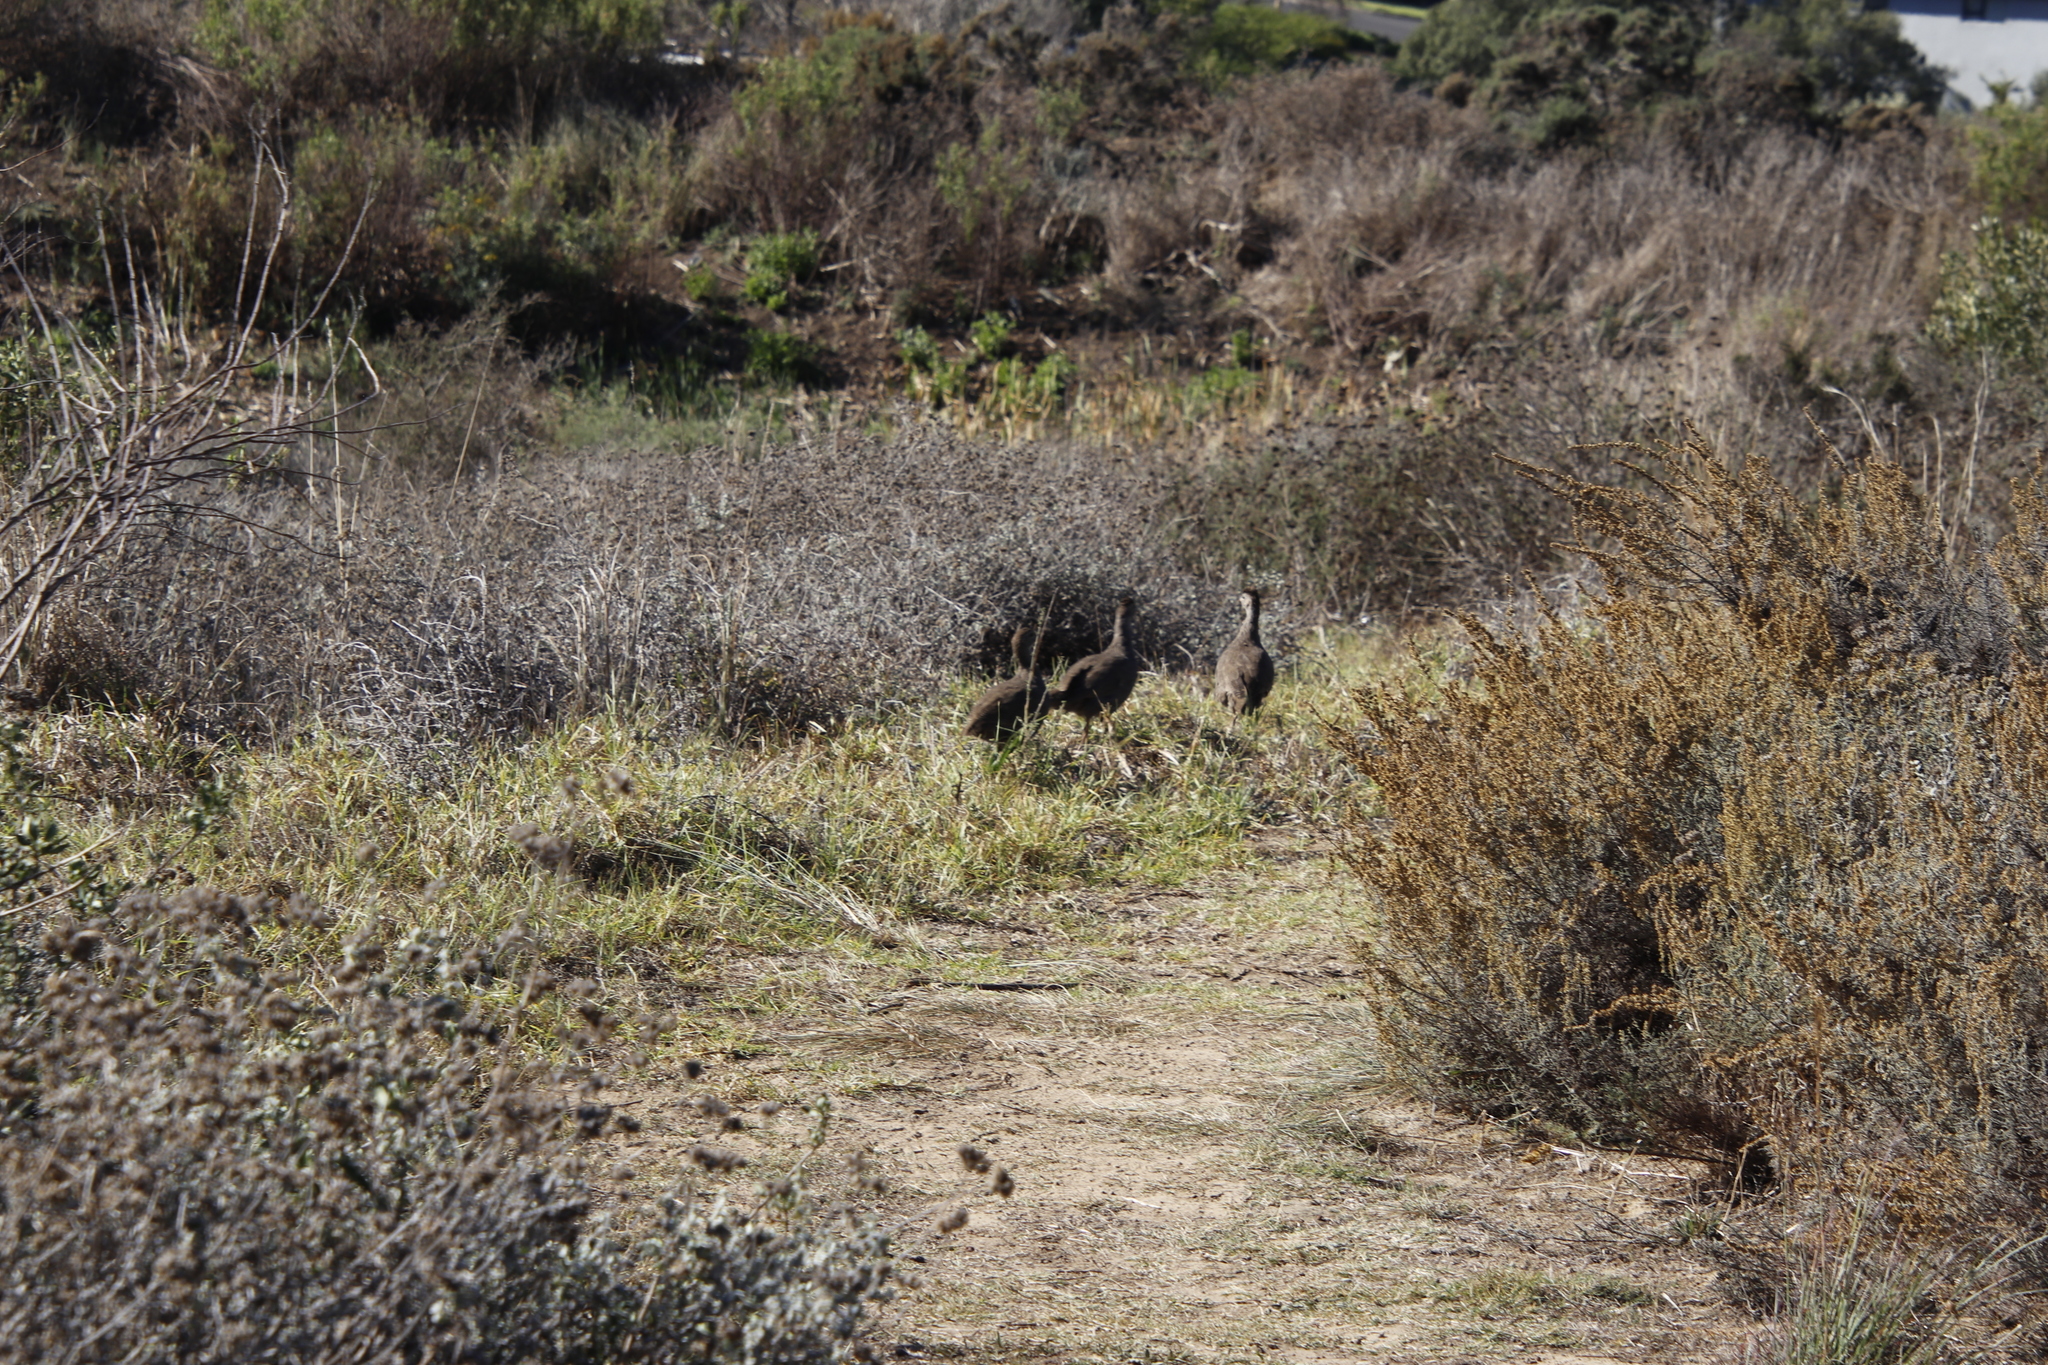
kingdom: Animalia
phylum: Chordata
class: Aves
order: Galliformes
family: Phasianidae
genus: Pternistis
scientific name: Pternistis capensis
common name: Cape spurfowl
